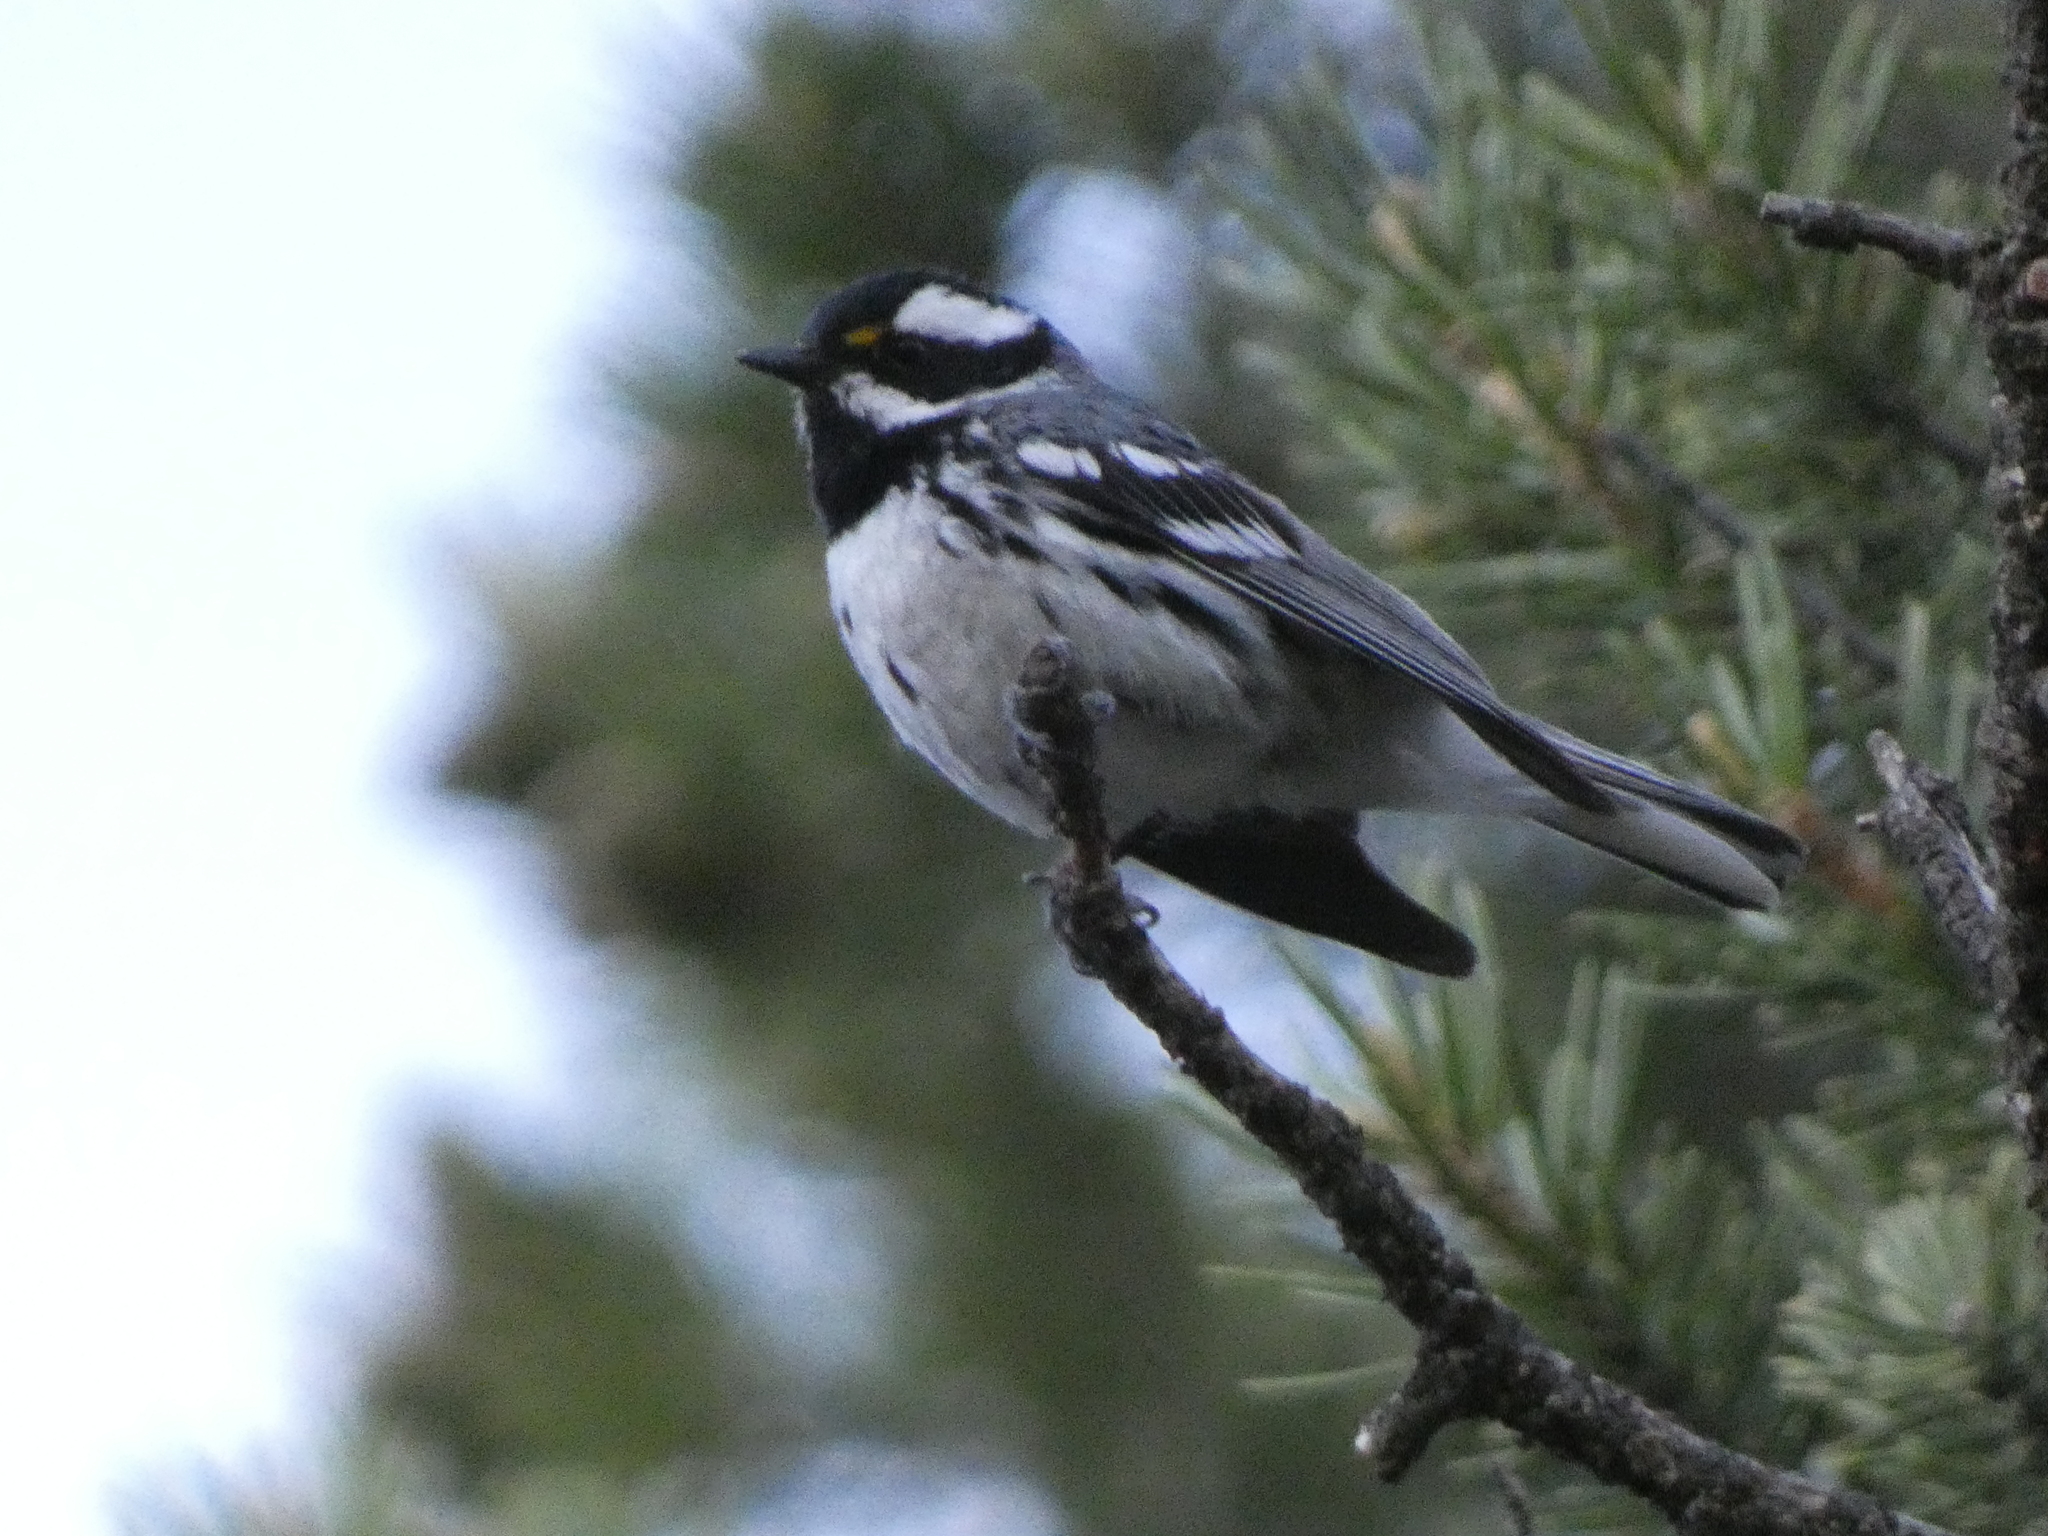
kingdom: Animalia
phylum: Chordata
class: Aves
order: Passeriformes
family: Parulidae
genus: Setophaga
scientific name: Setophaga nigrescens
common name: Black-throated gray warbler
